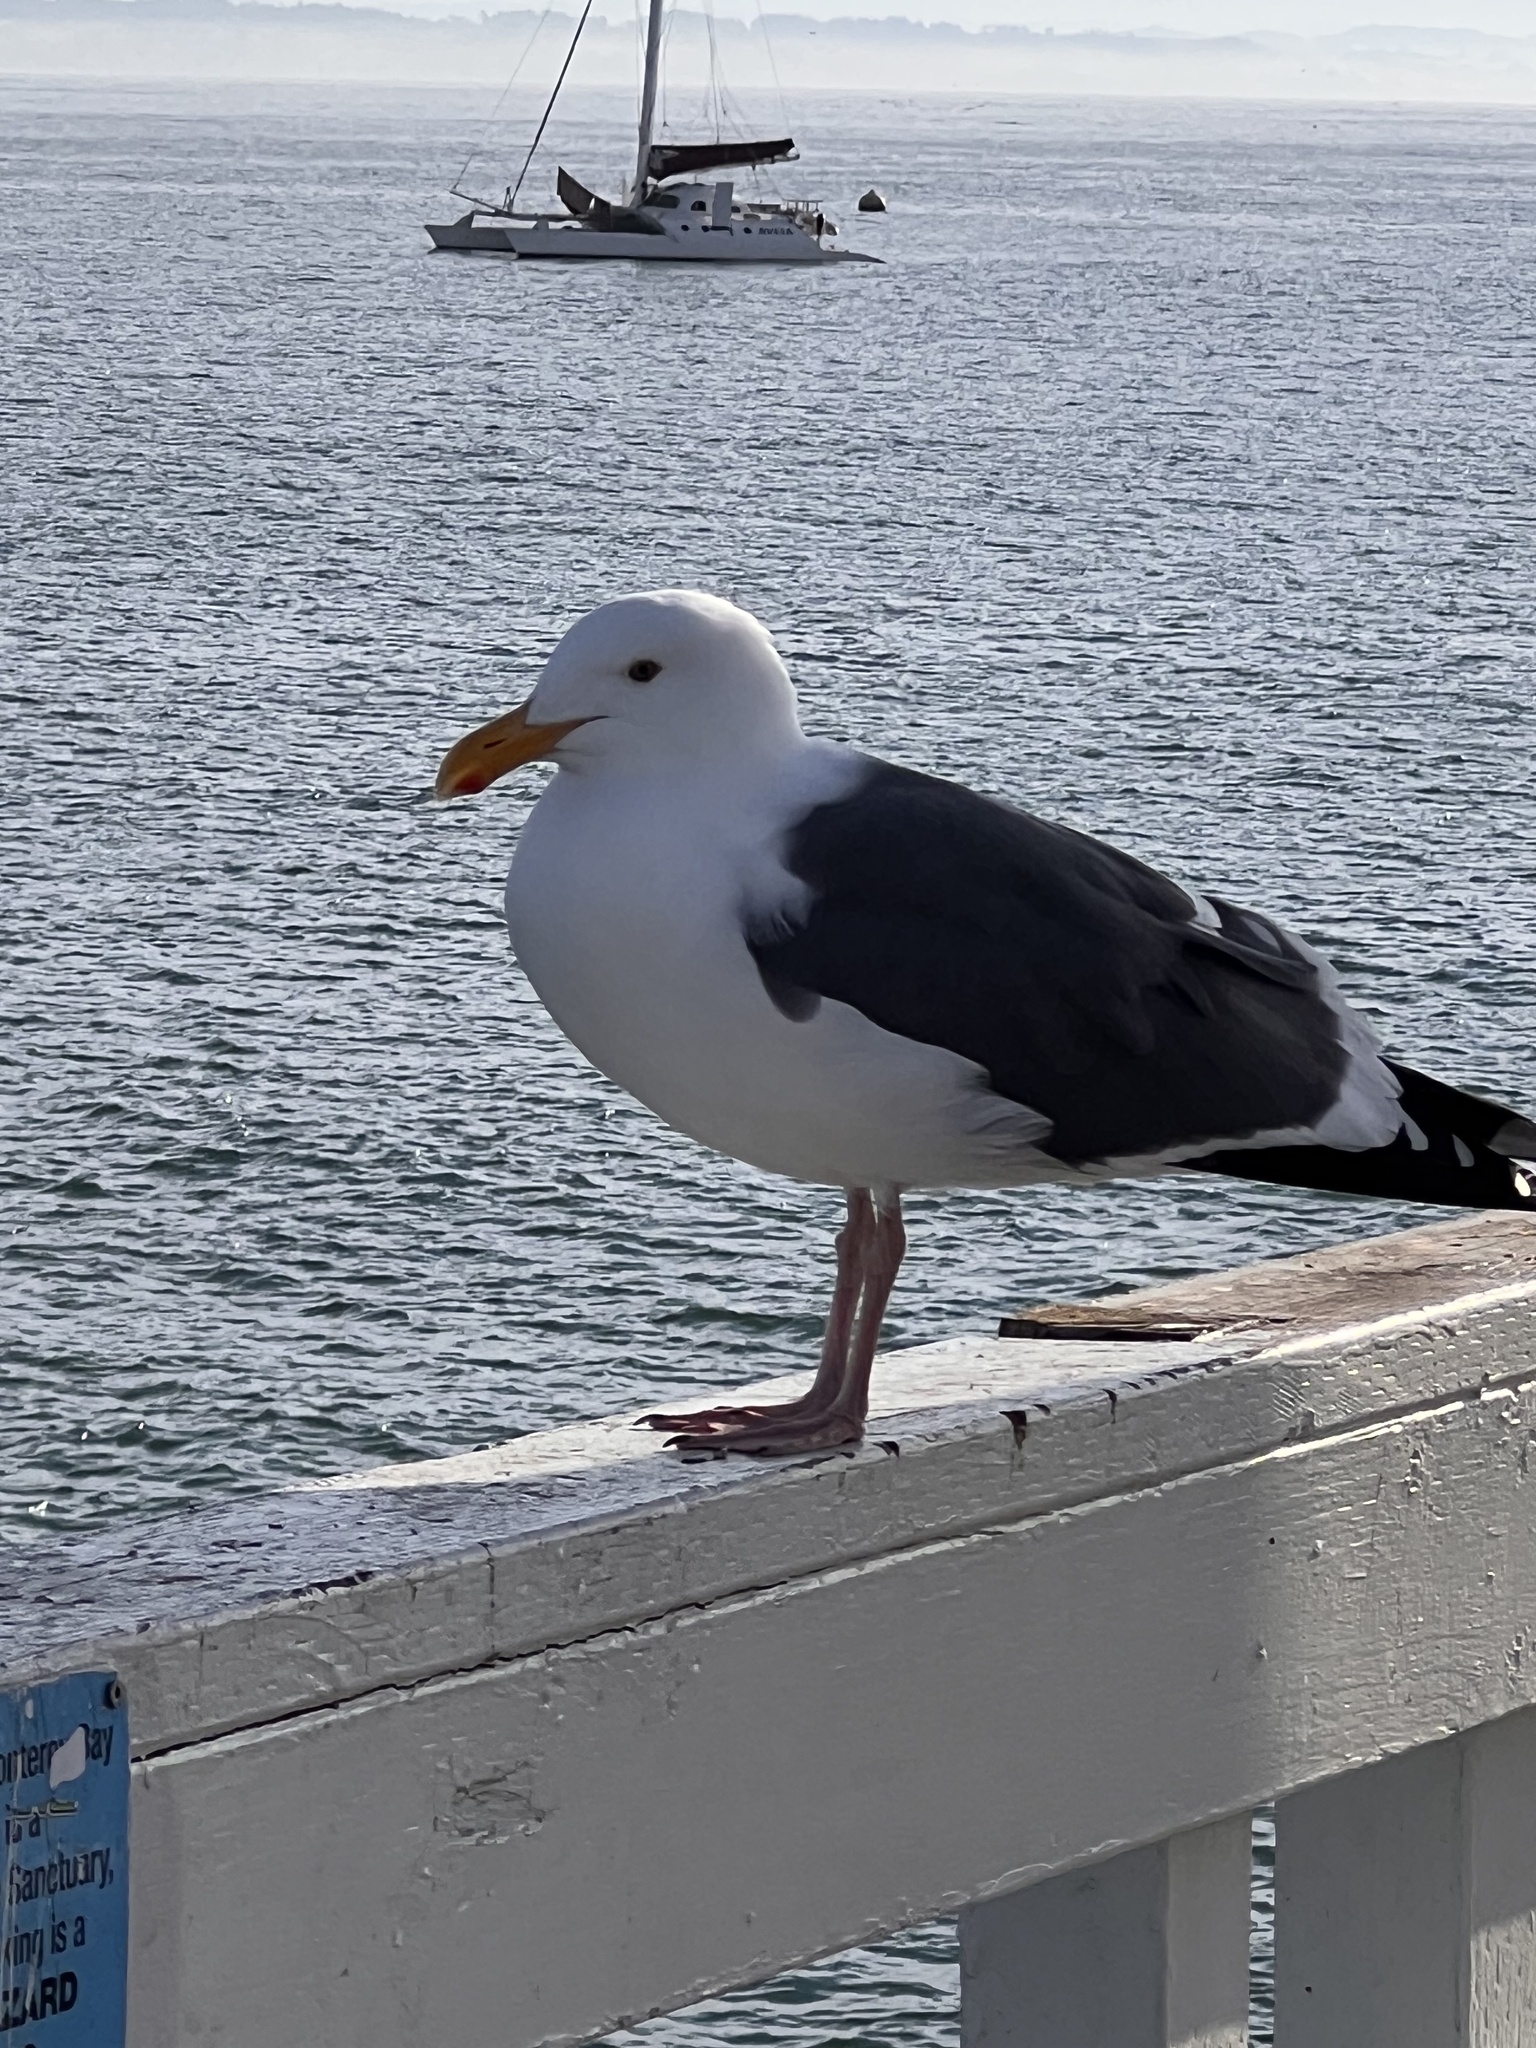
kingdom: Animalia
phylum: Chordata
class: Aves
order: Charadriiformes
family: Laridae
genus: Larus
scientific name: Larus occidentalis
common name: Western gull
